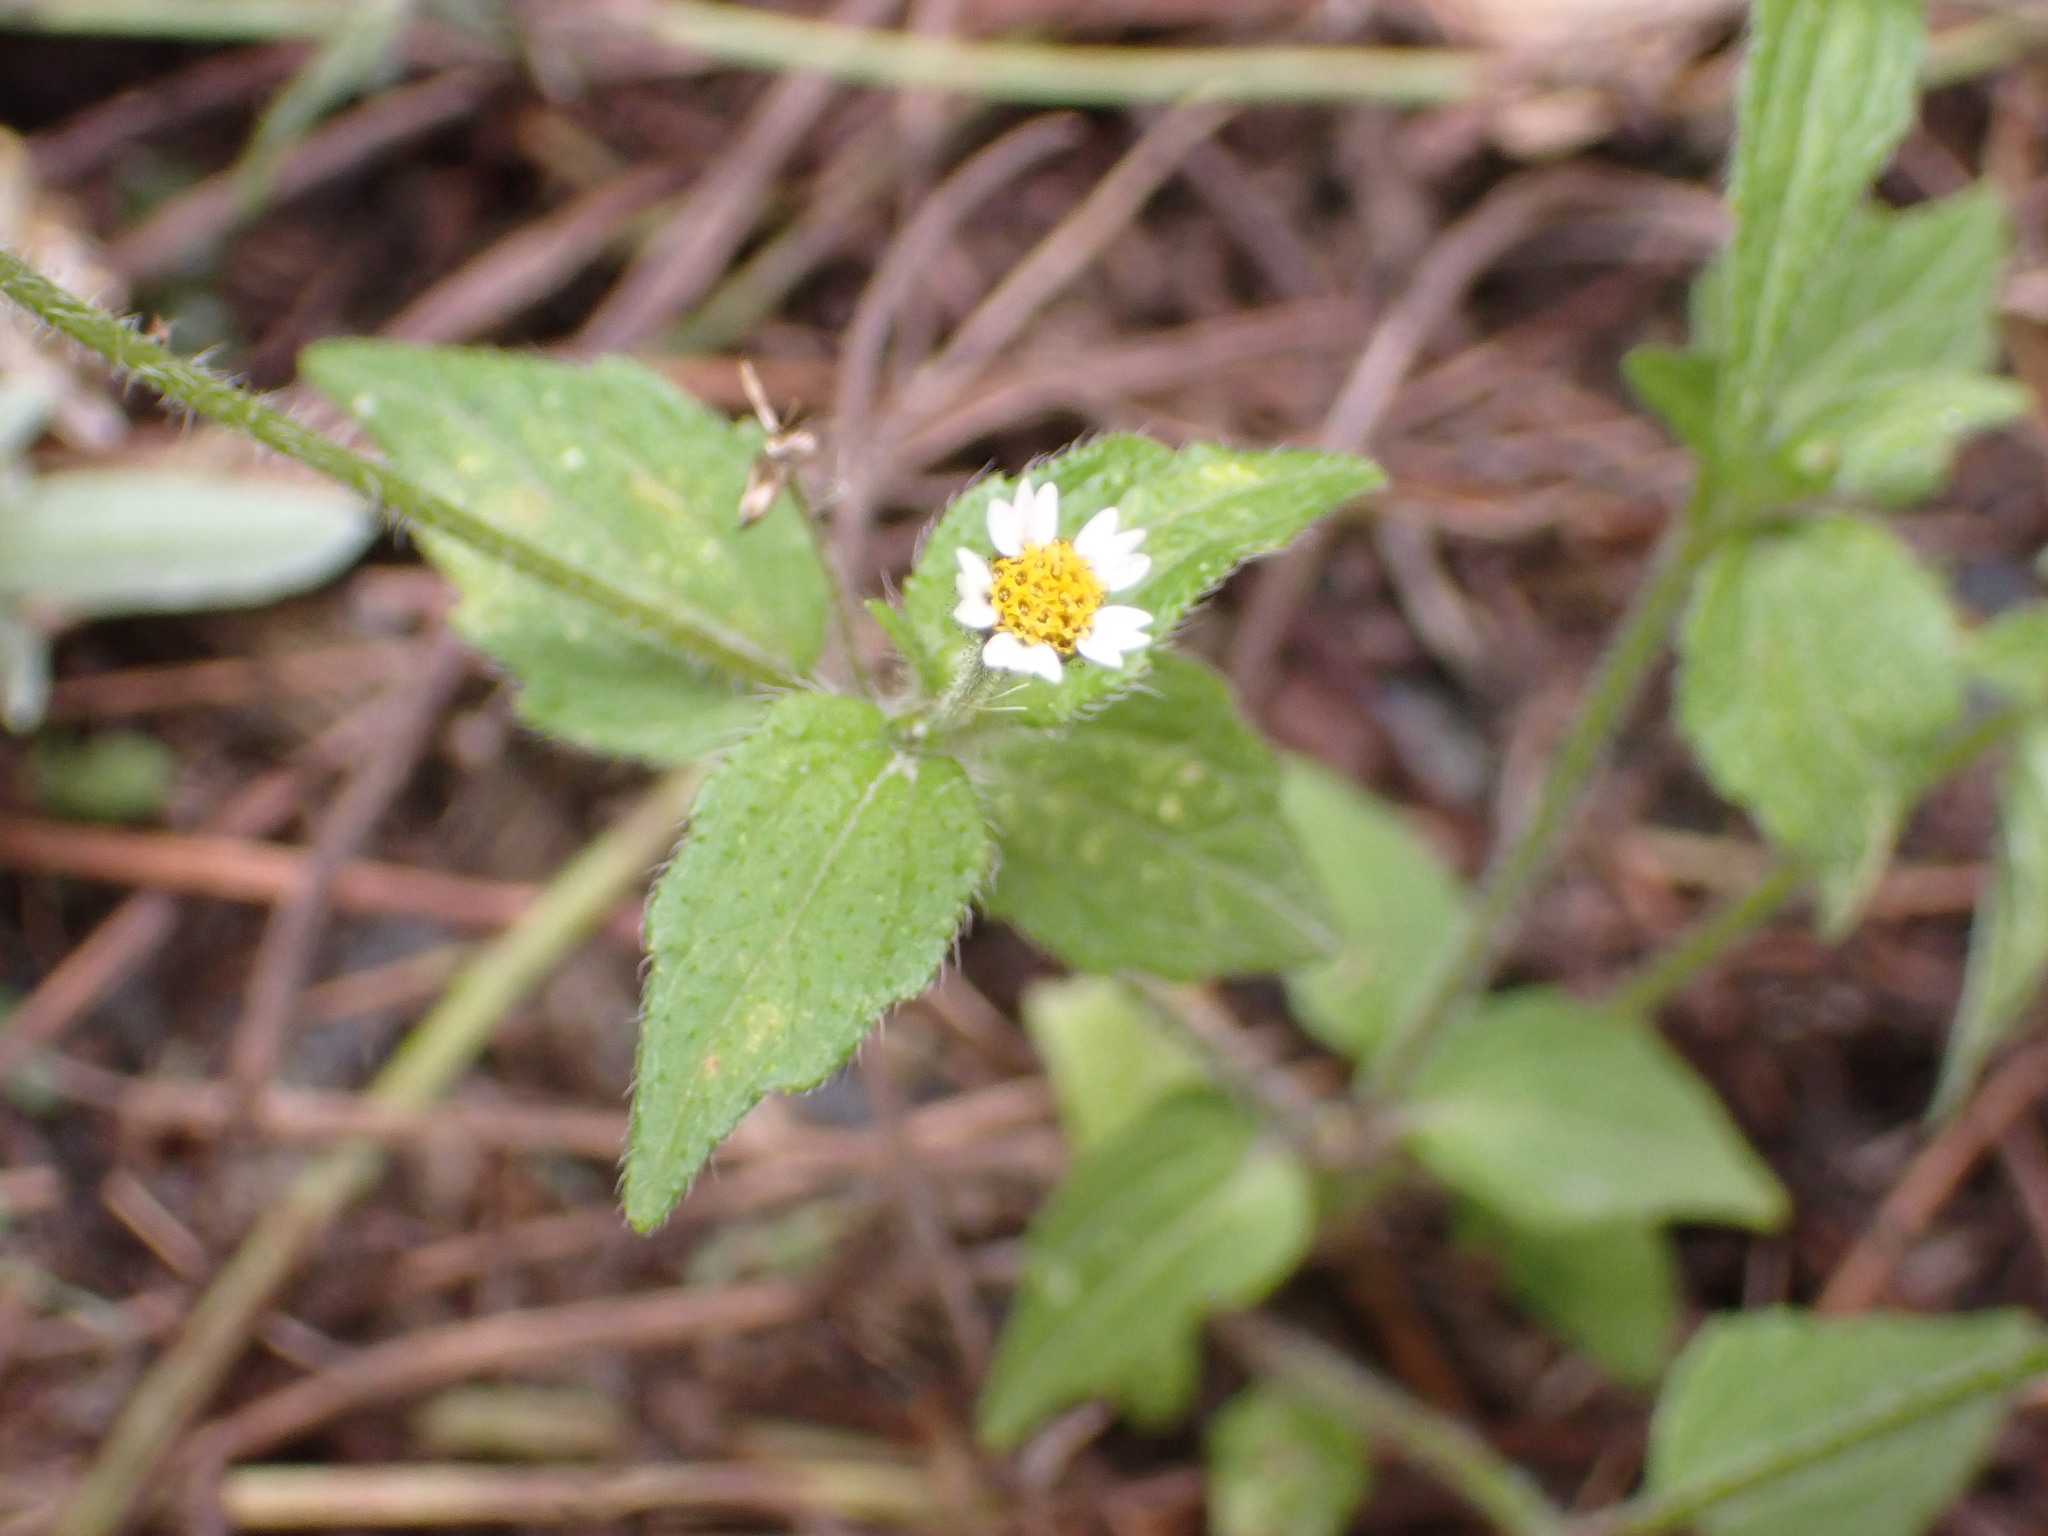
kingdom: Plantae
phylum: Tracheophyta
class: Magnoliopsida
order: Asterales
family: Asteraceae
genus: Galinsoga
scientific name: Galinsoga quadriradiata
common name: Shaggy soldier
